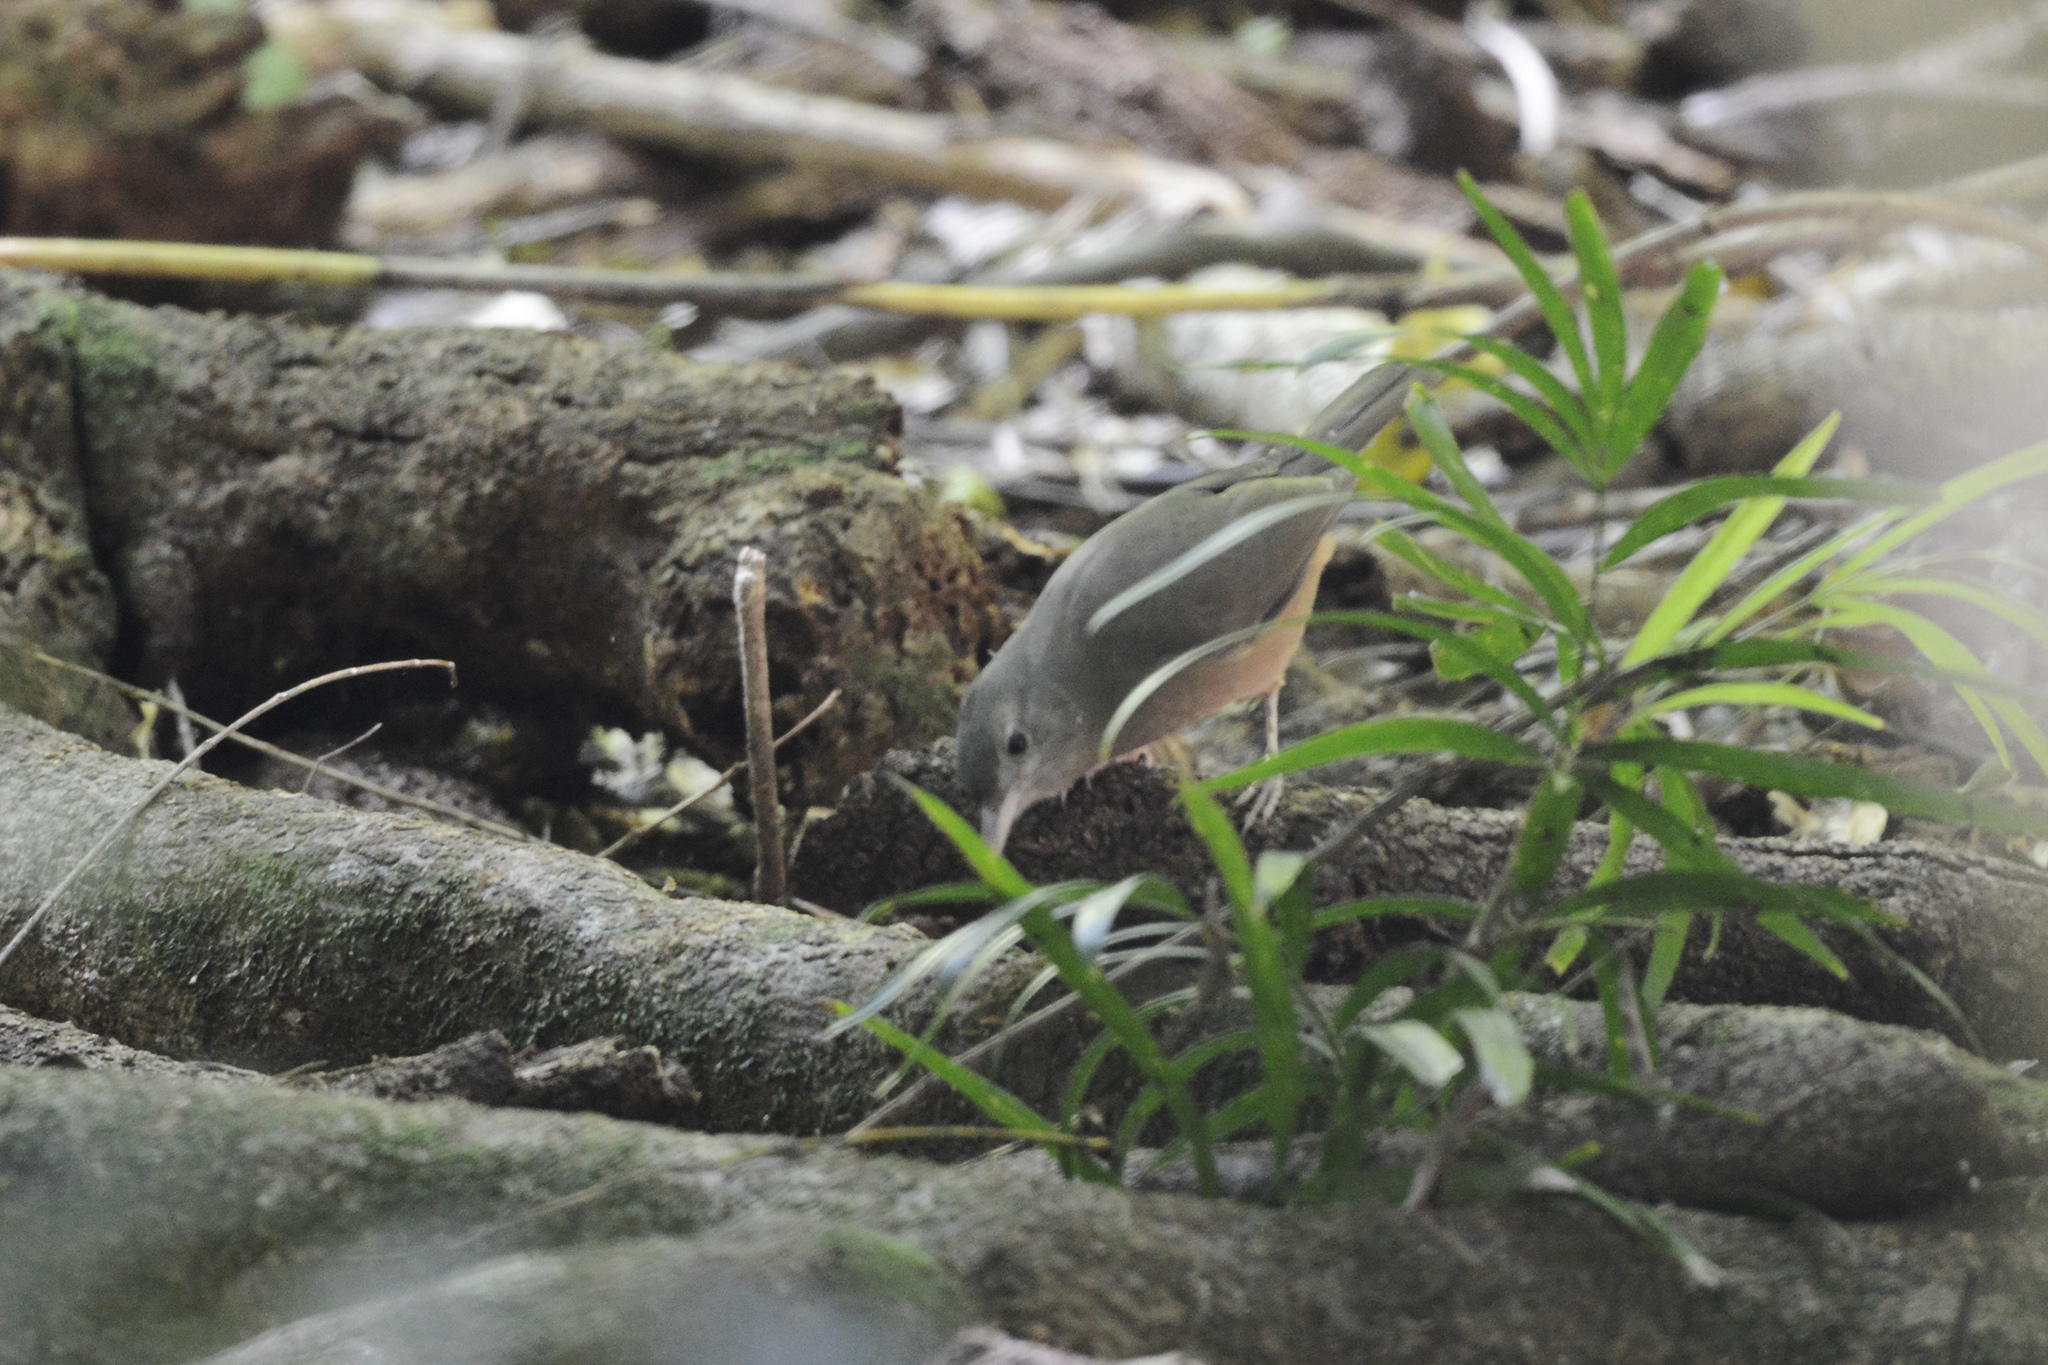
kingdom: Animalia
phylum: Chordata
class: Aves
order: Passeriformes
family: Pachycephalidae
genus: Colluricincla
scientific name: Colluricincla rufogaster
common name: Rufous shrikethrush
